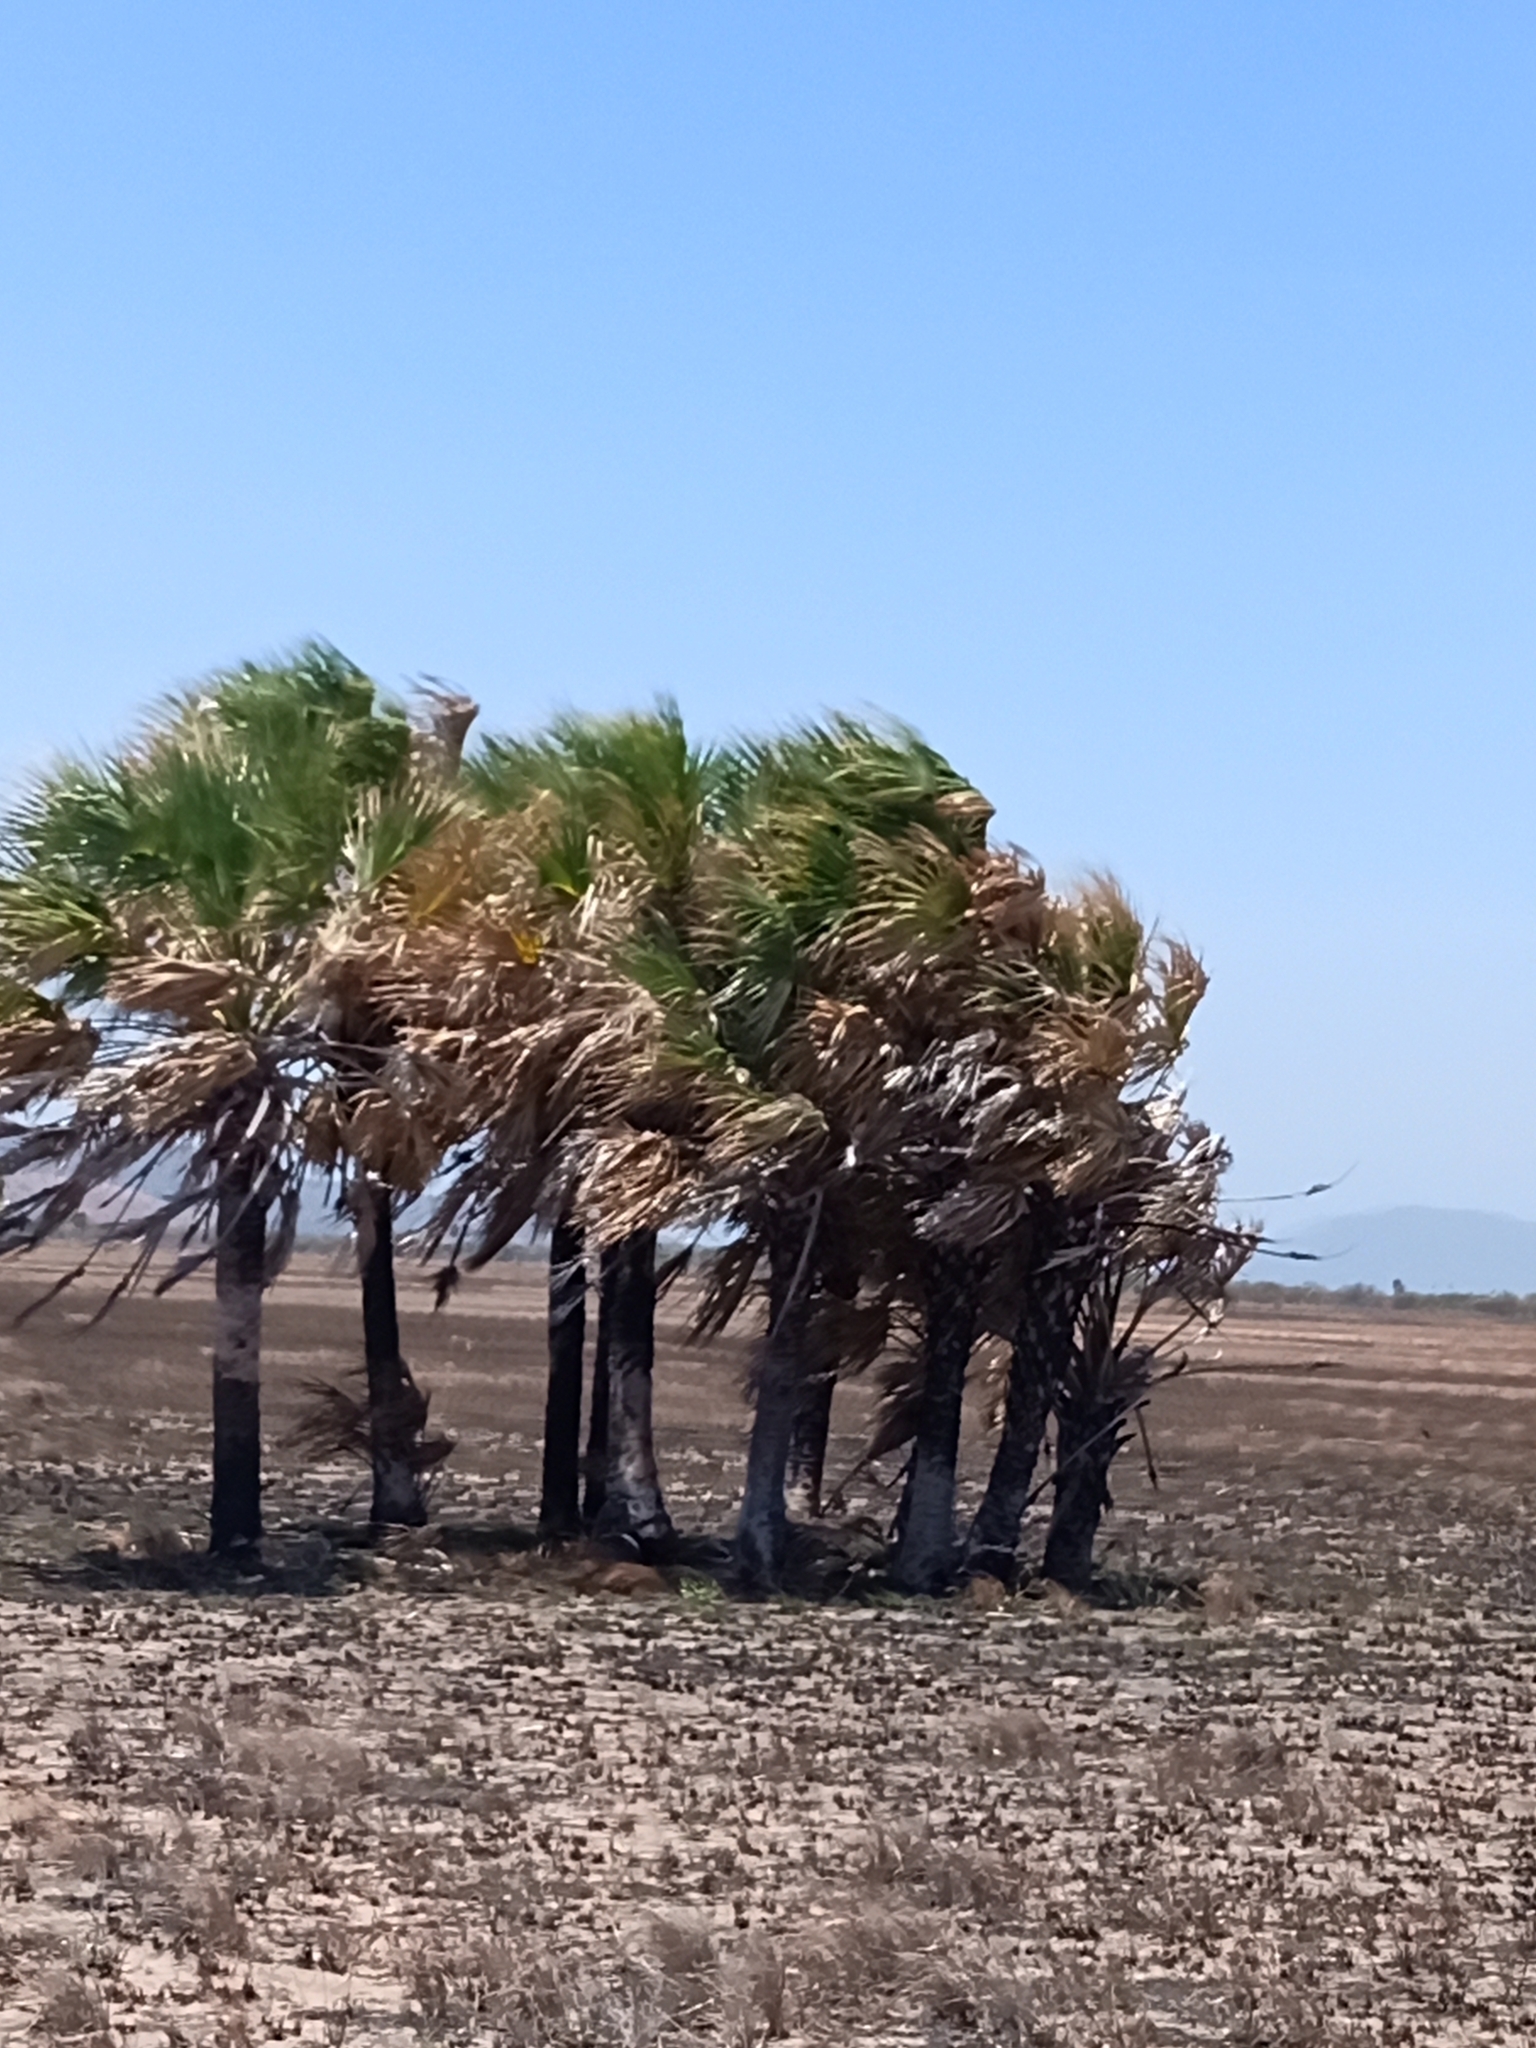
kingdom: Plantae
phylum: Tracheophyta
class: Liliopsida
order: Arecales
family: Arecaceae
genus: Sabal
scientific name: Sabal mexicana
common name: Texas palmetto
